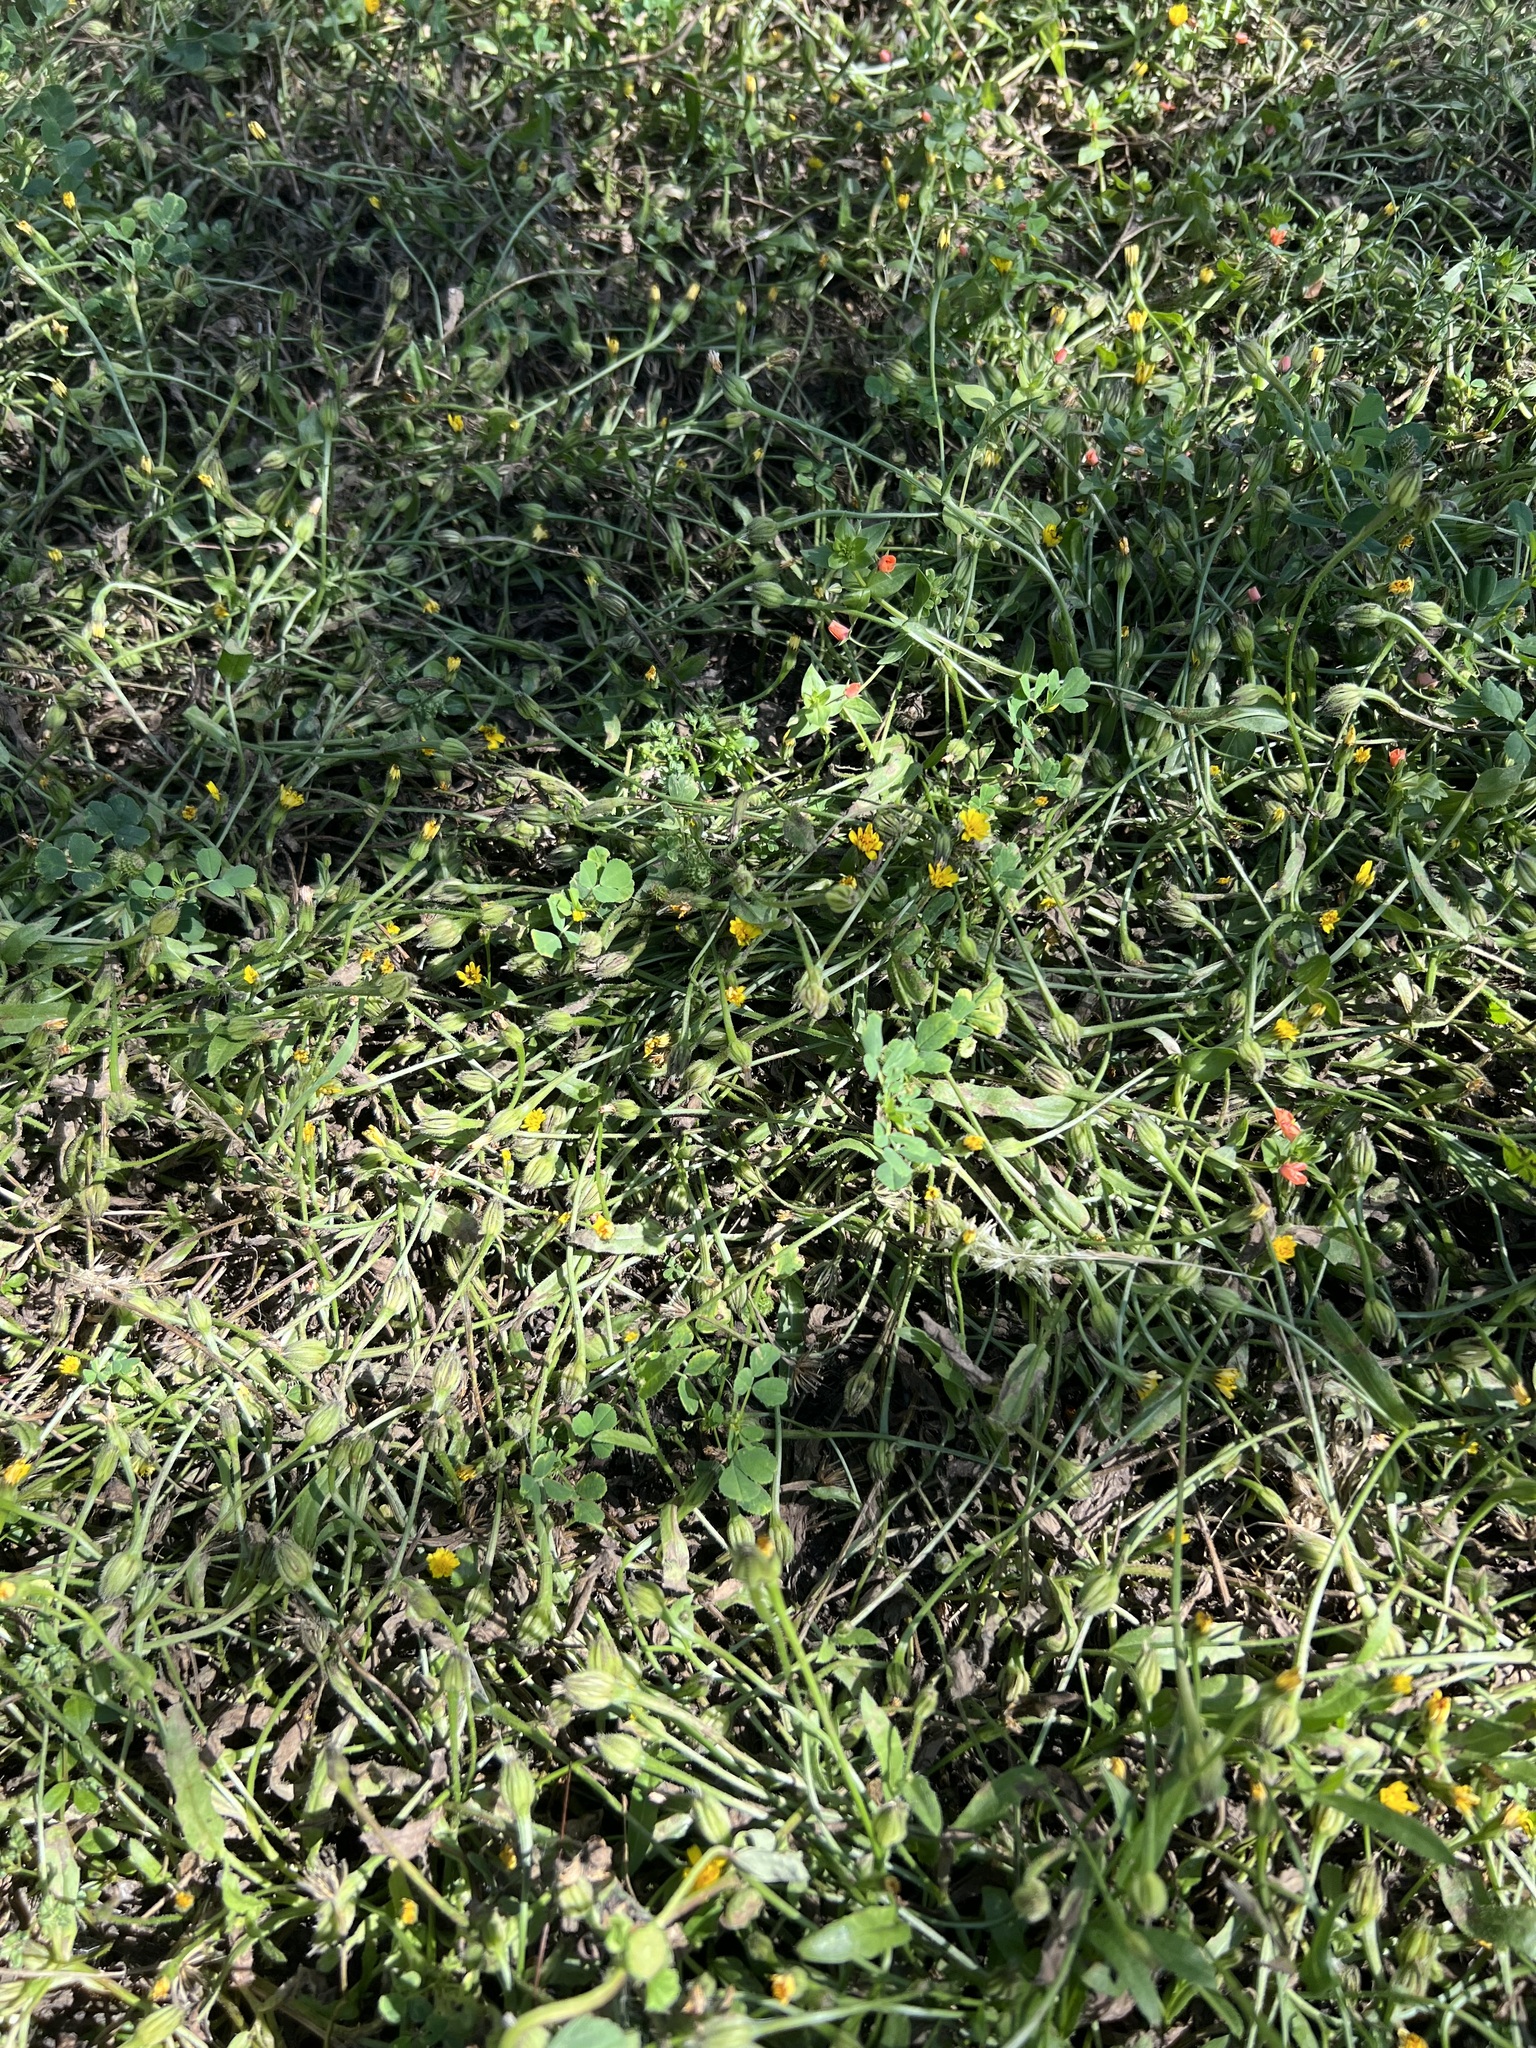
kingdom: Plantae
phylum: Tracheophyta
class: Magnoliopsida
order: Asterales
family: Asteraceae
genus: Hedypnois
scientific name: Hedypnois rhagadioloides
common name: Cretan weed
